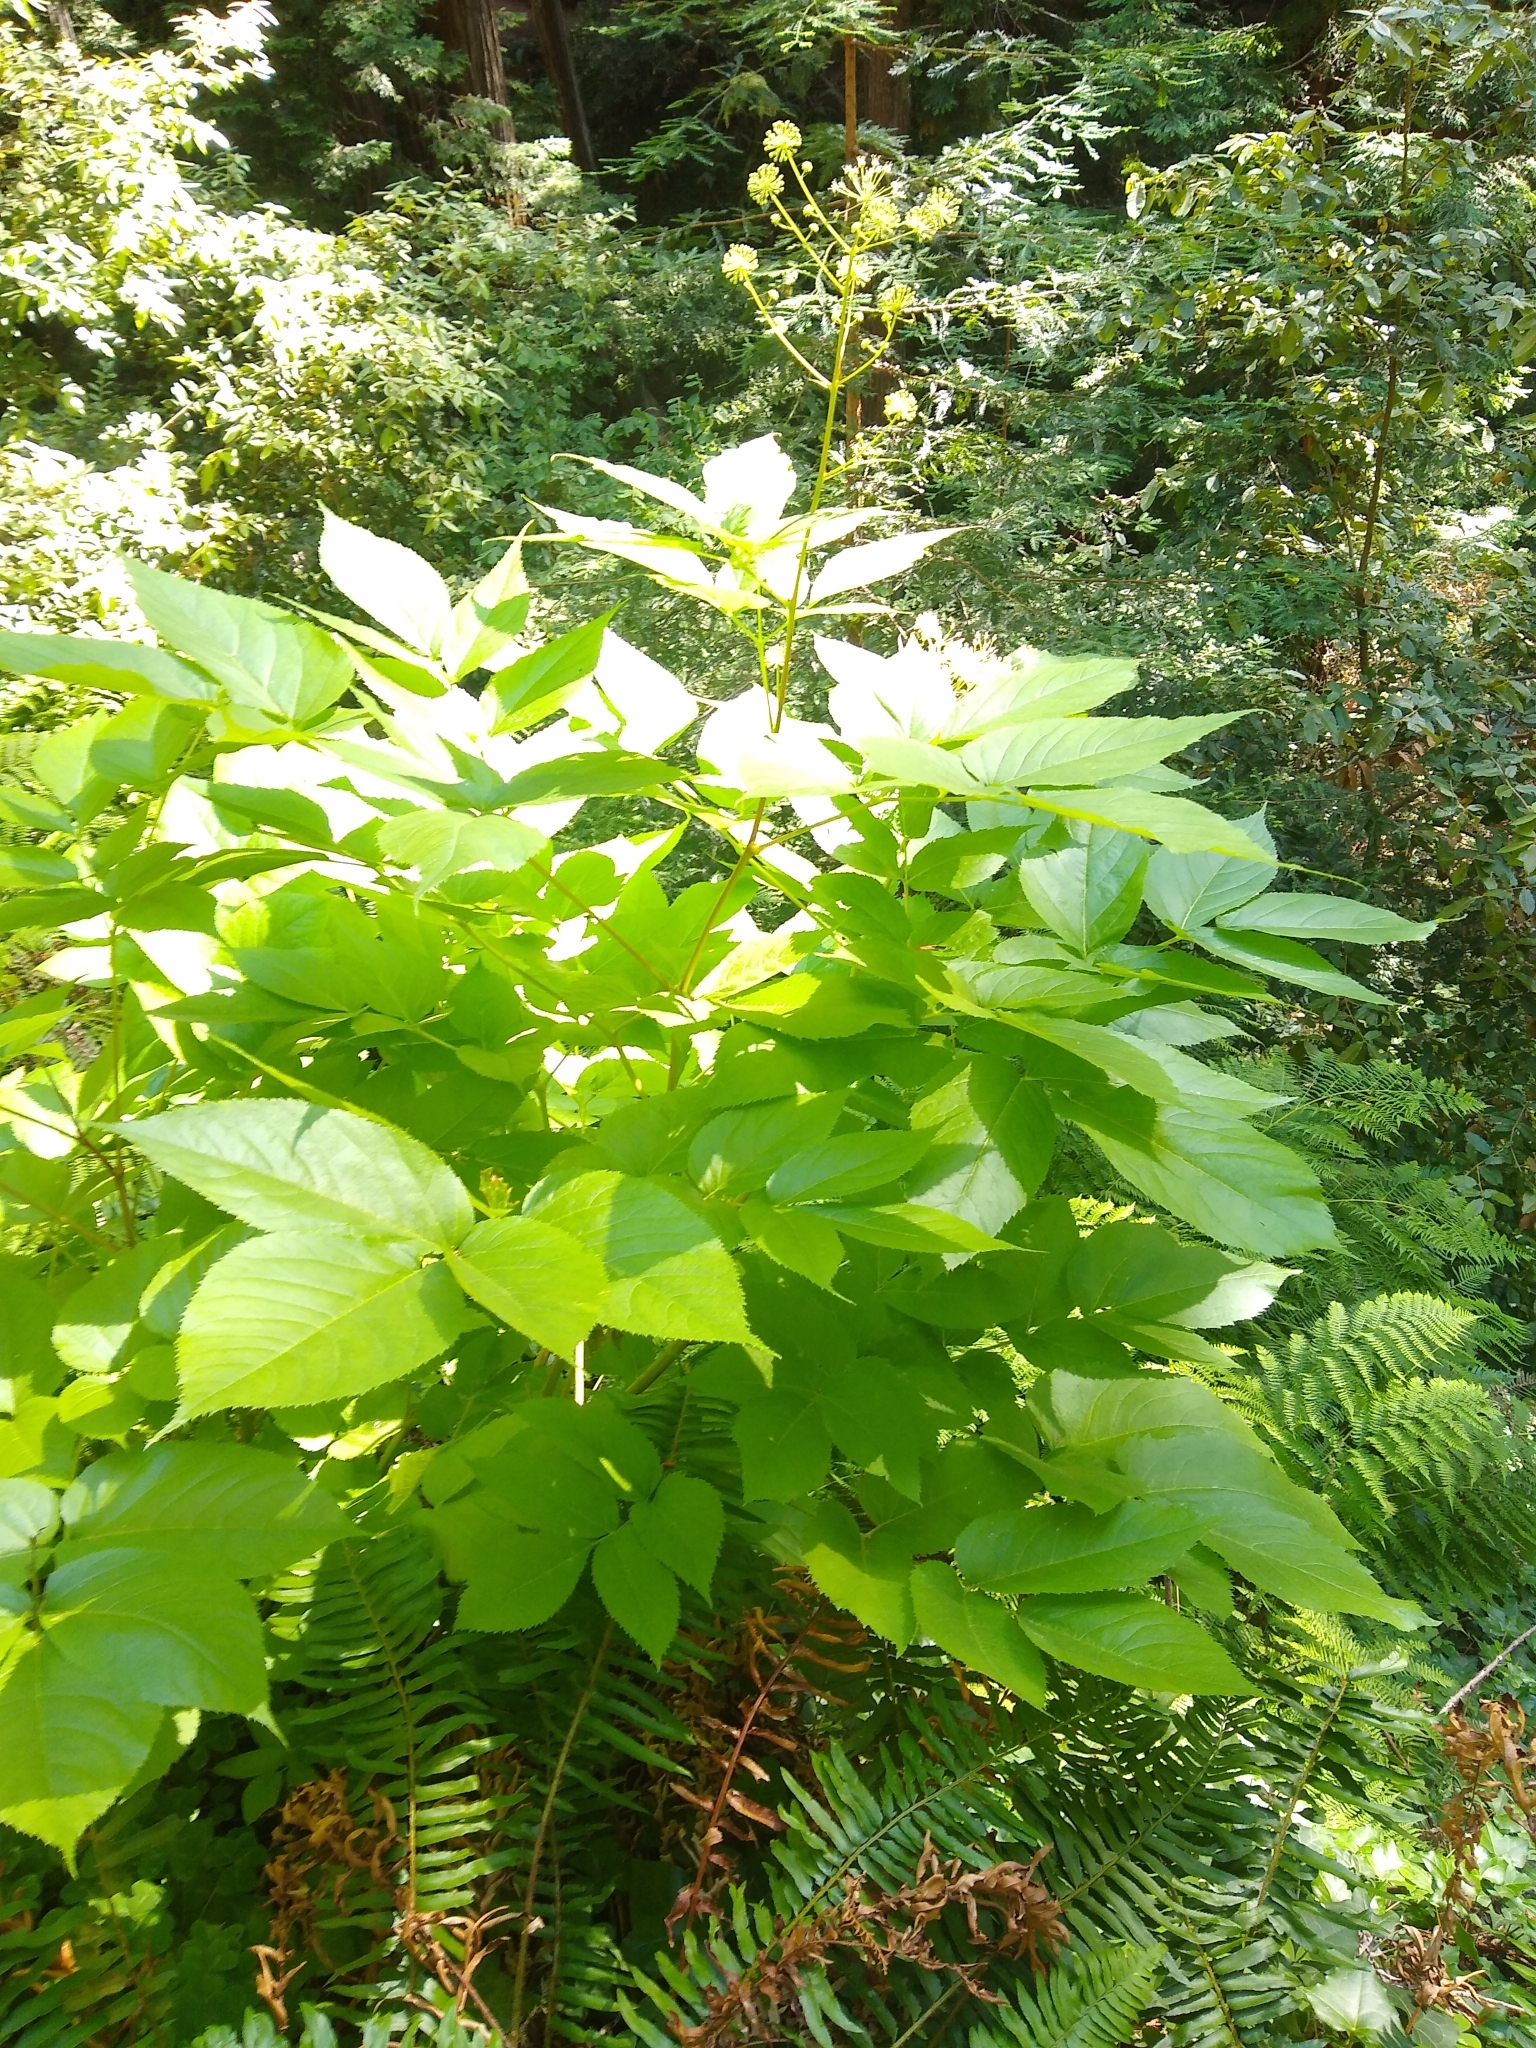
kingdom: Plantae
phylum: Tracheophyta
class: Magnoliopsida
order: Apiales
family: Araliaceae
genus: Aralia
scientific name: Aralia californica
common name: California-ginseng
